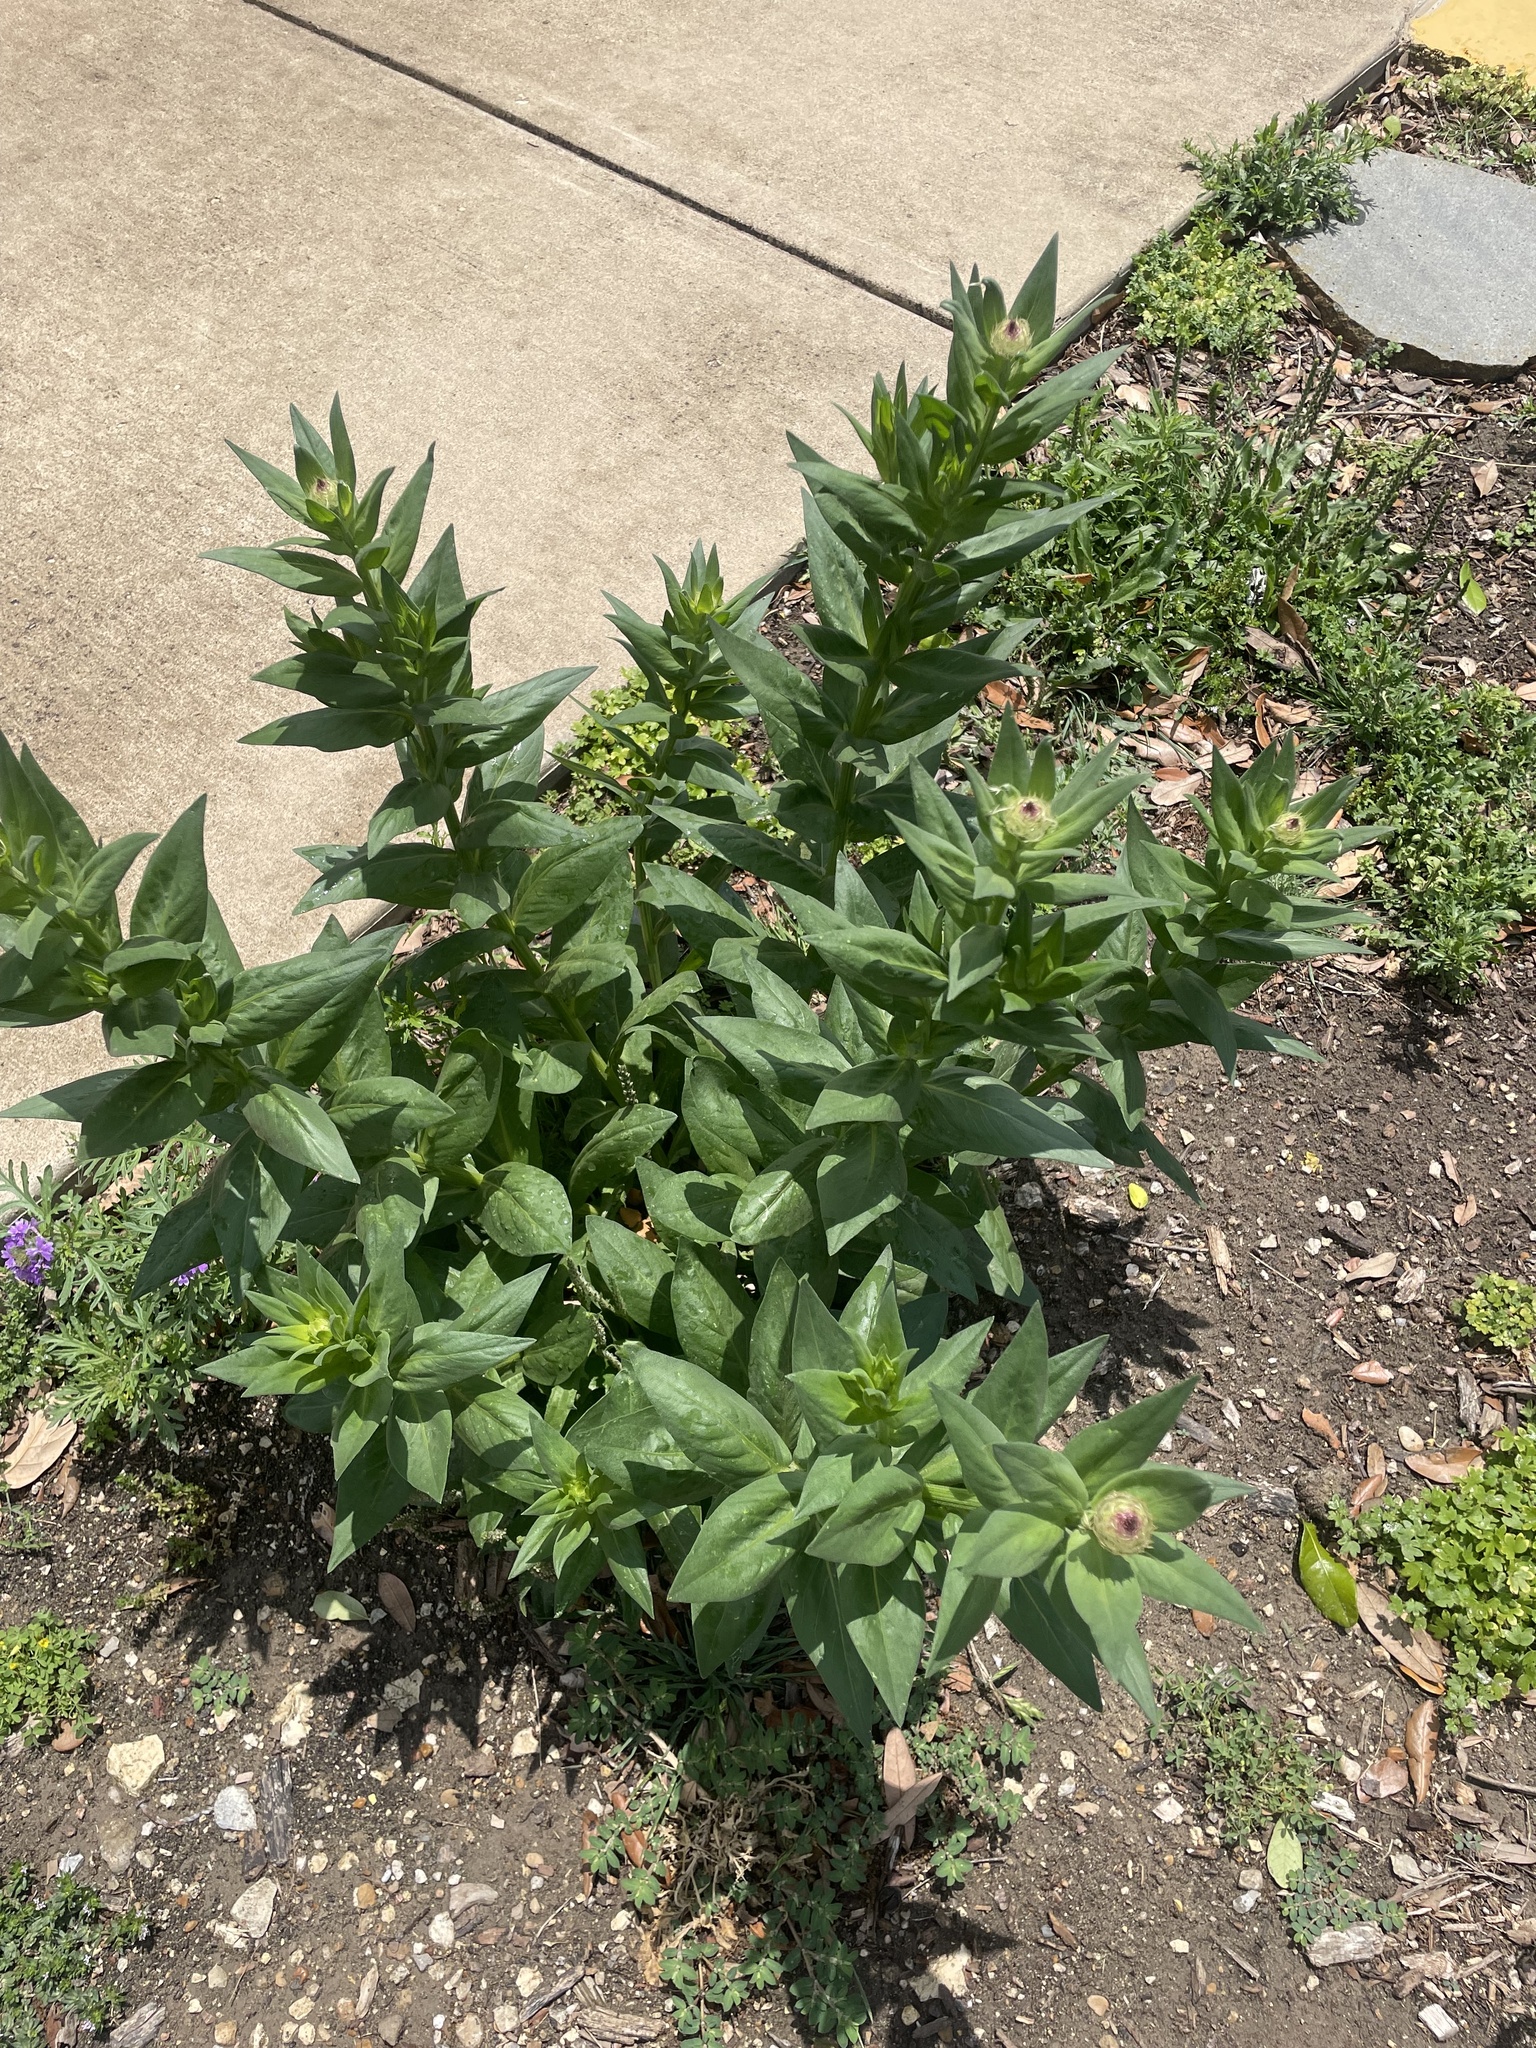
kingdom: Plantae
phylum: Tracheophyta
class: Magnoliopsida
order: Asterales
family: Asteraceae
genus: Plectocephalus
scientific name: Plectocephalus americanus
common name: American basket-flower
